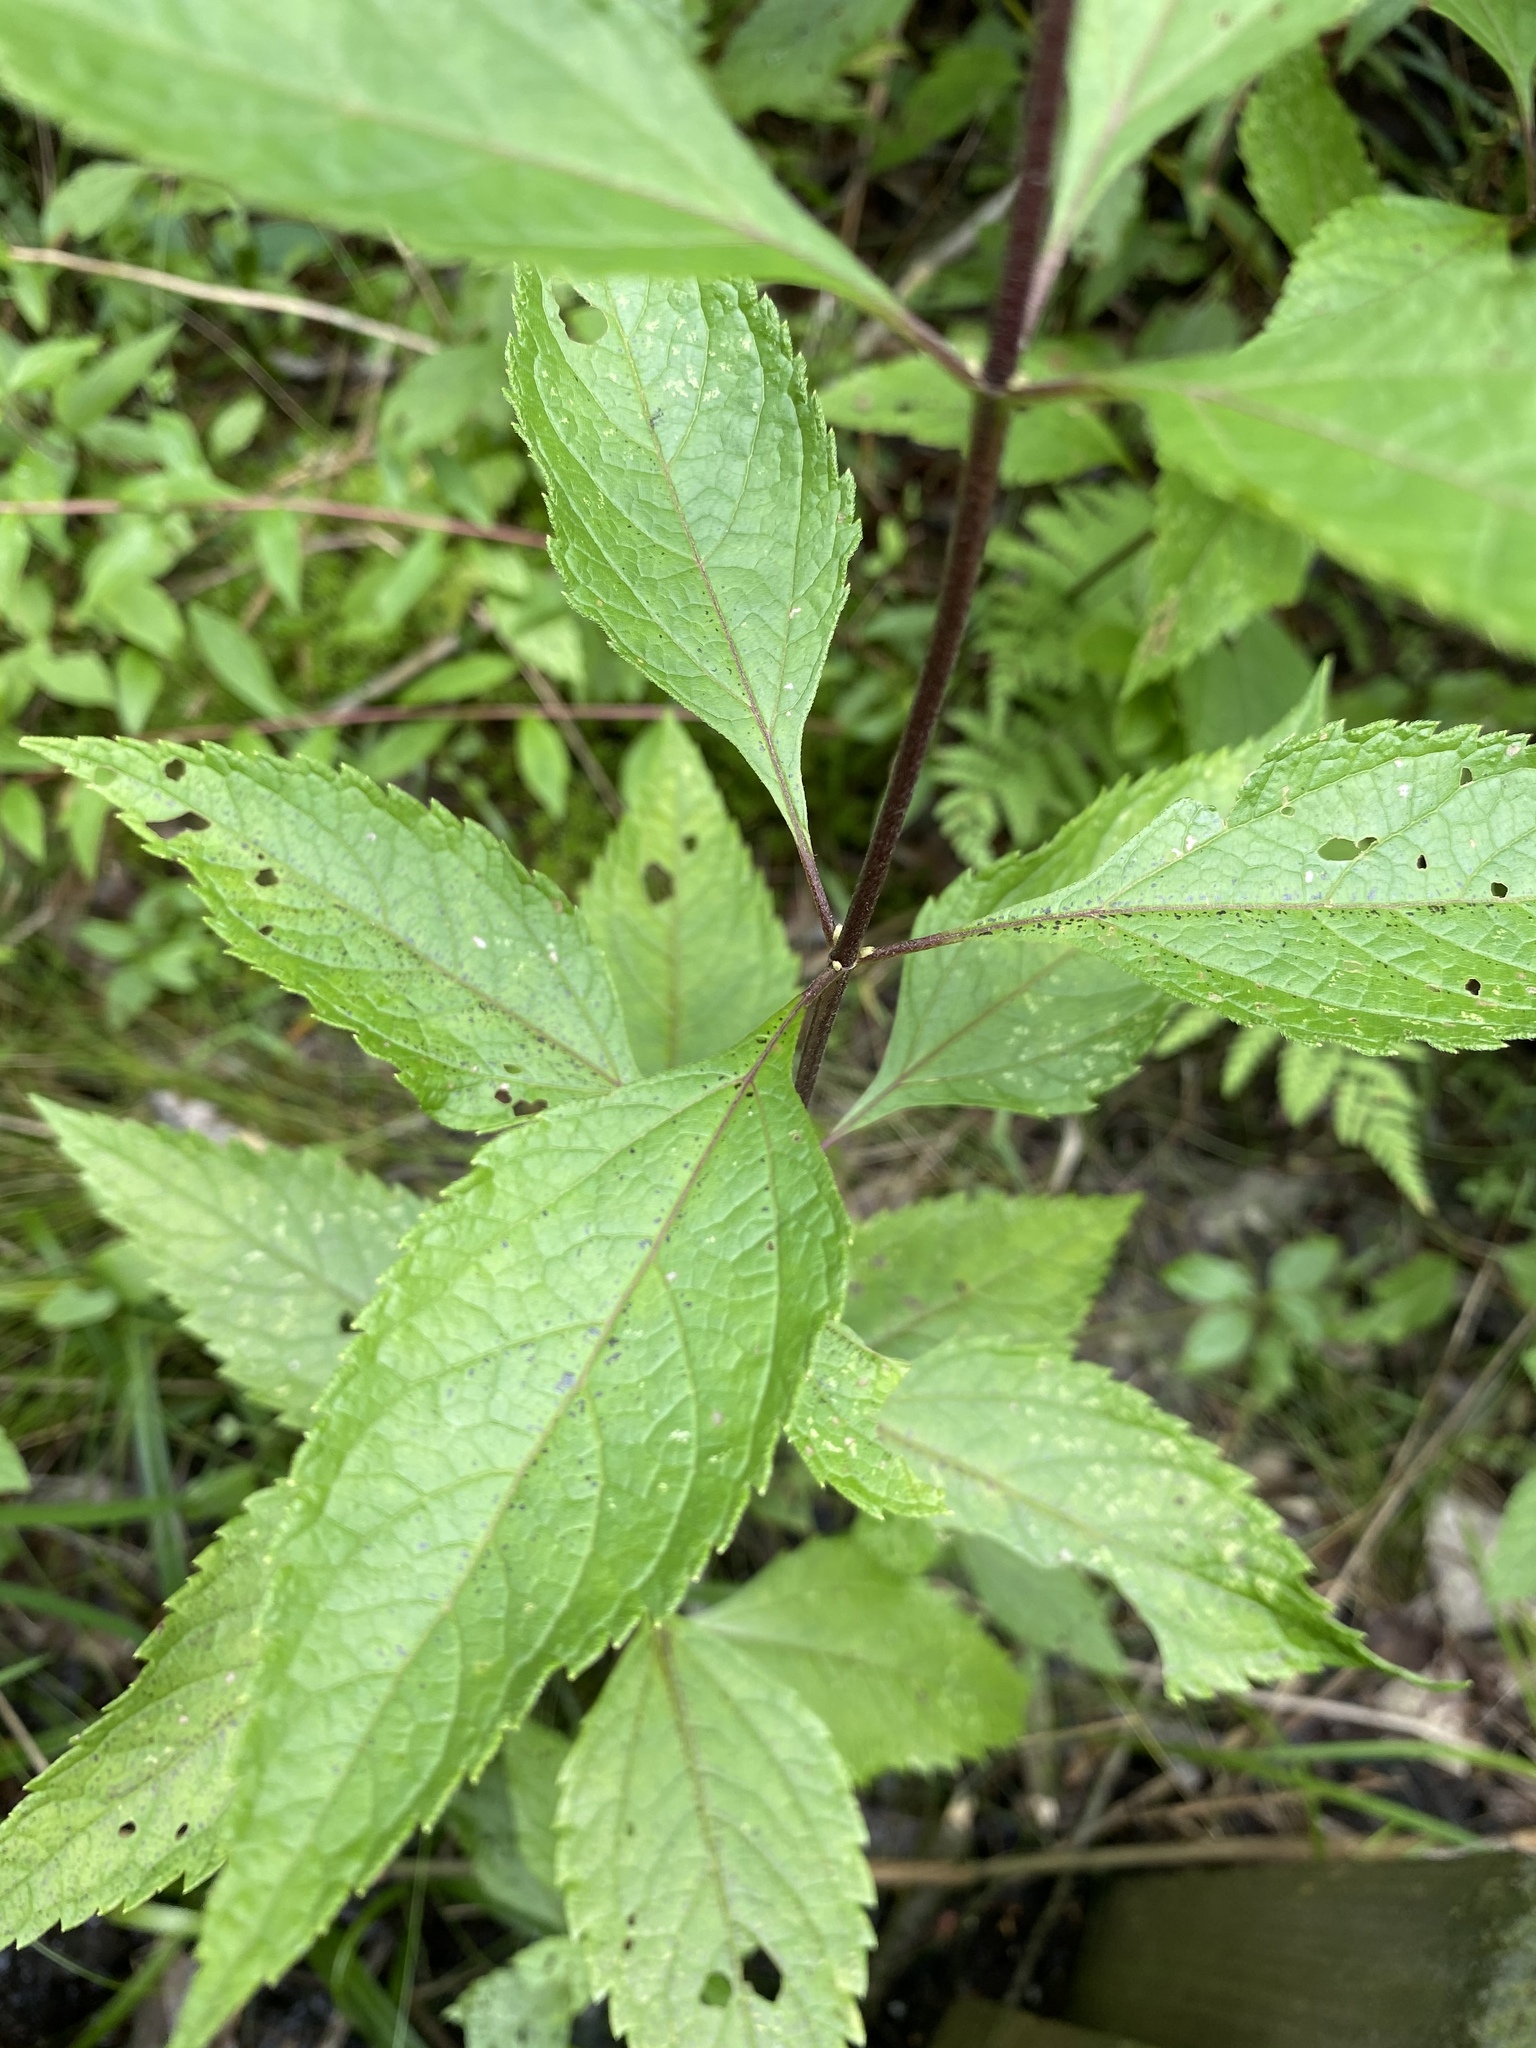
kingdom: Plantae
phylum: Tracheophyta
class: Magnoliopsida
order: Asterales
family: Asteraceae
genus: Eutrochium
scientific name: Eutrochium dubium
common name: Coastal plain joe pye weed
